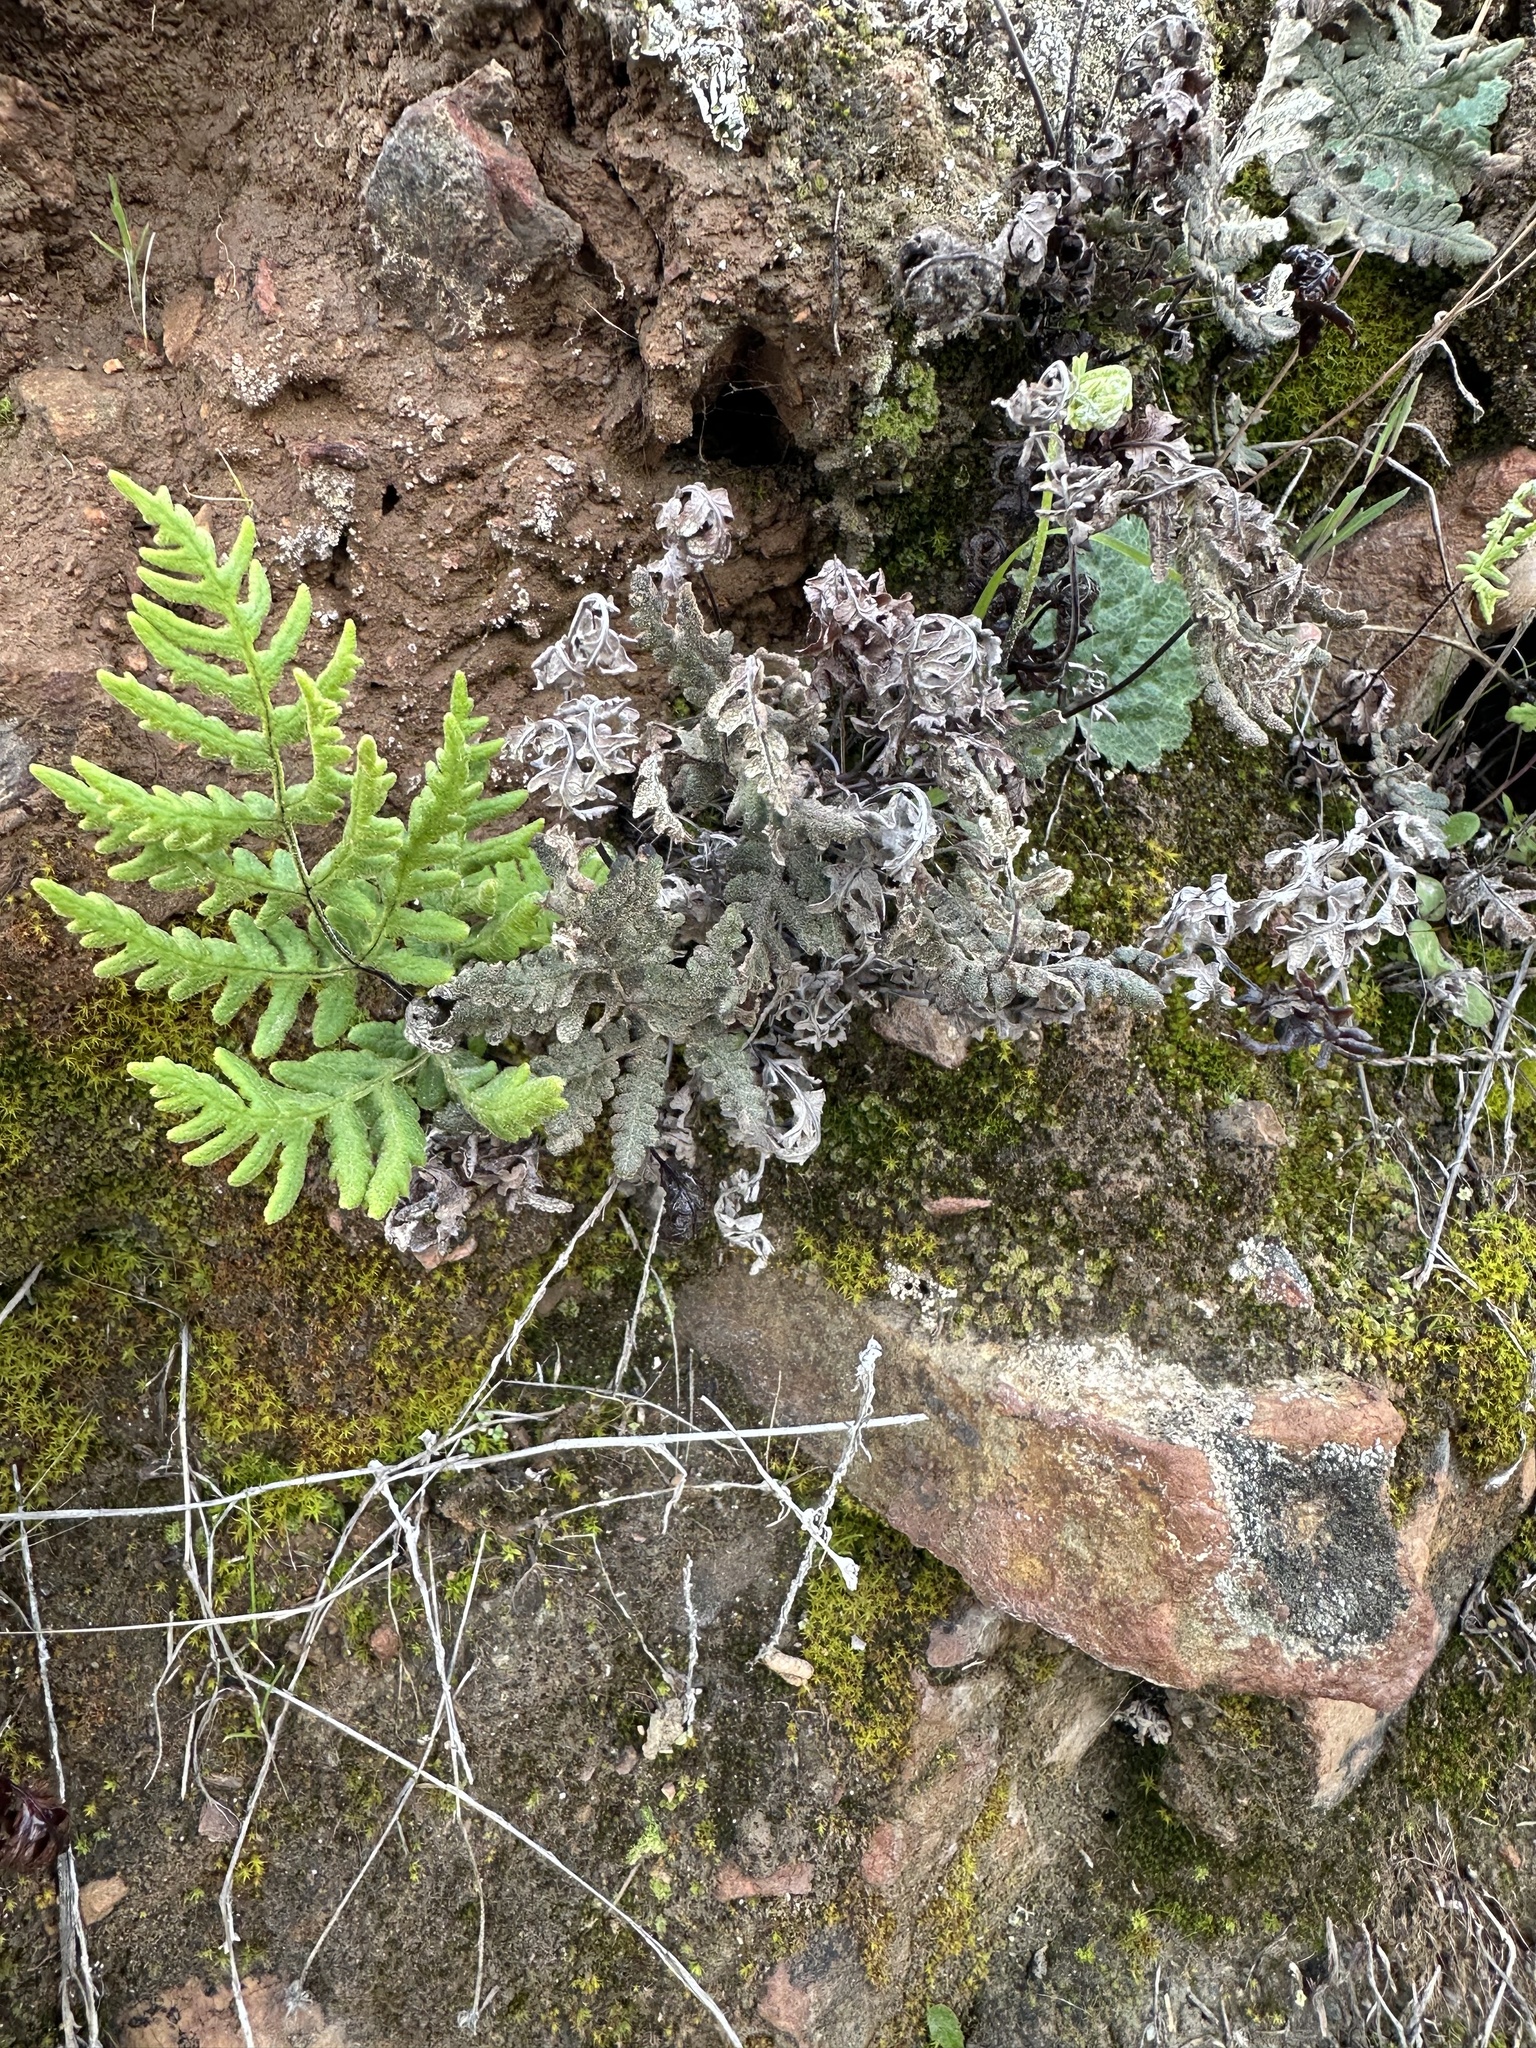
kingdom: Plantae
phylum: Tracheophyta
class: Polypodiopsida
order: Polypodiales
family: Pteridaceae
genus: Pentagramma
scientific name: Pentagramma glanduloviscida
